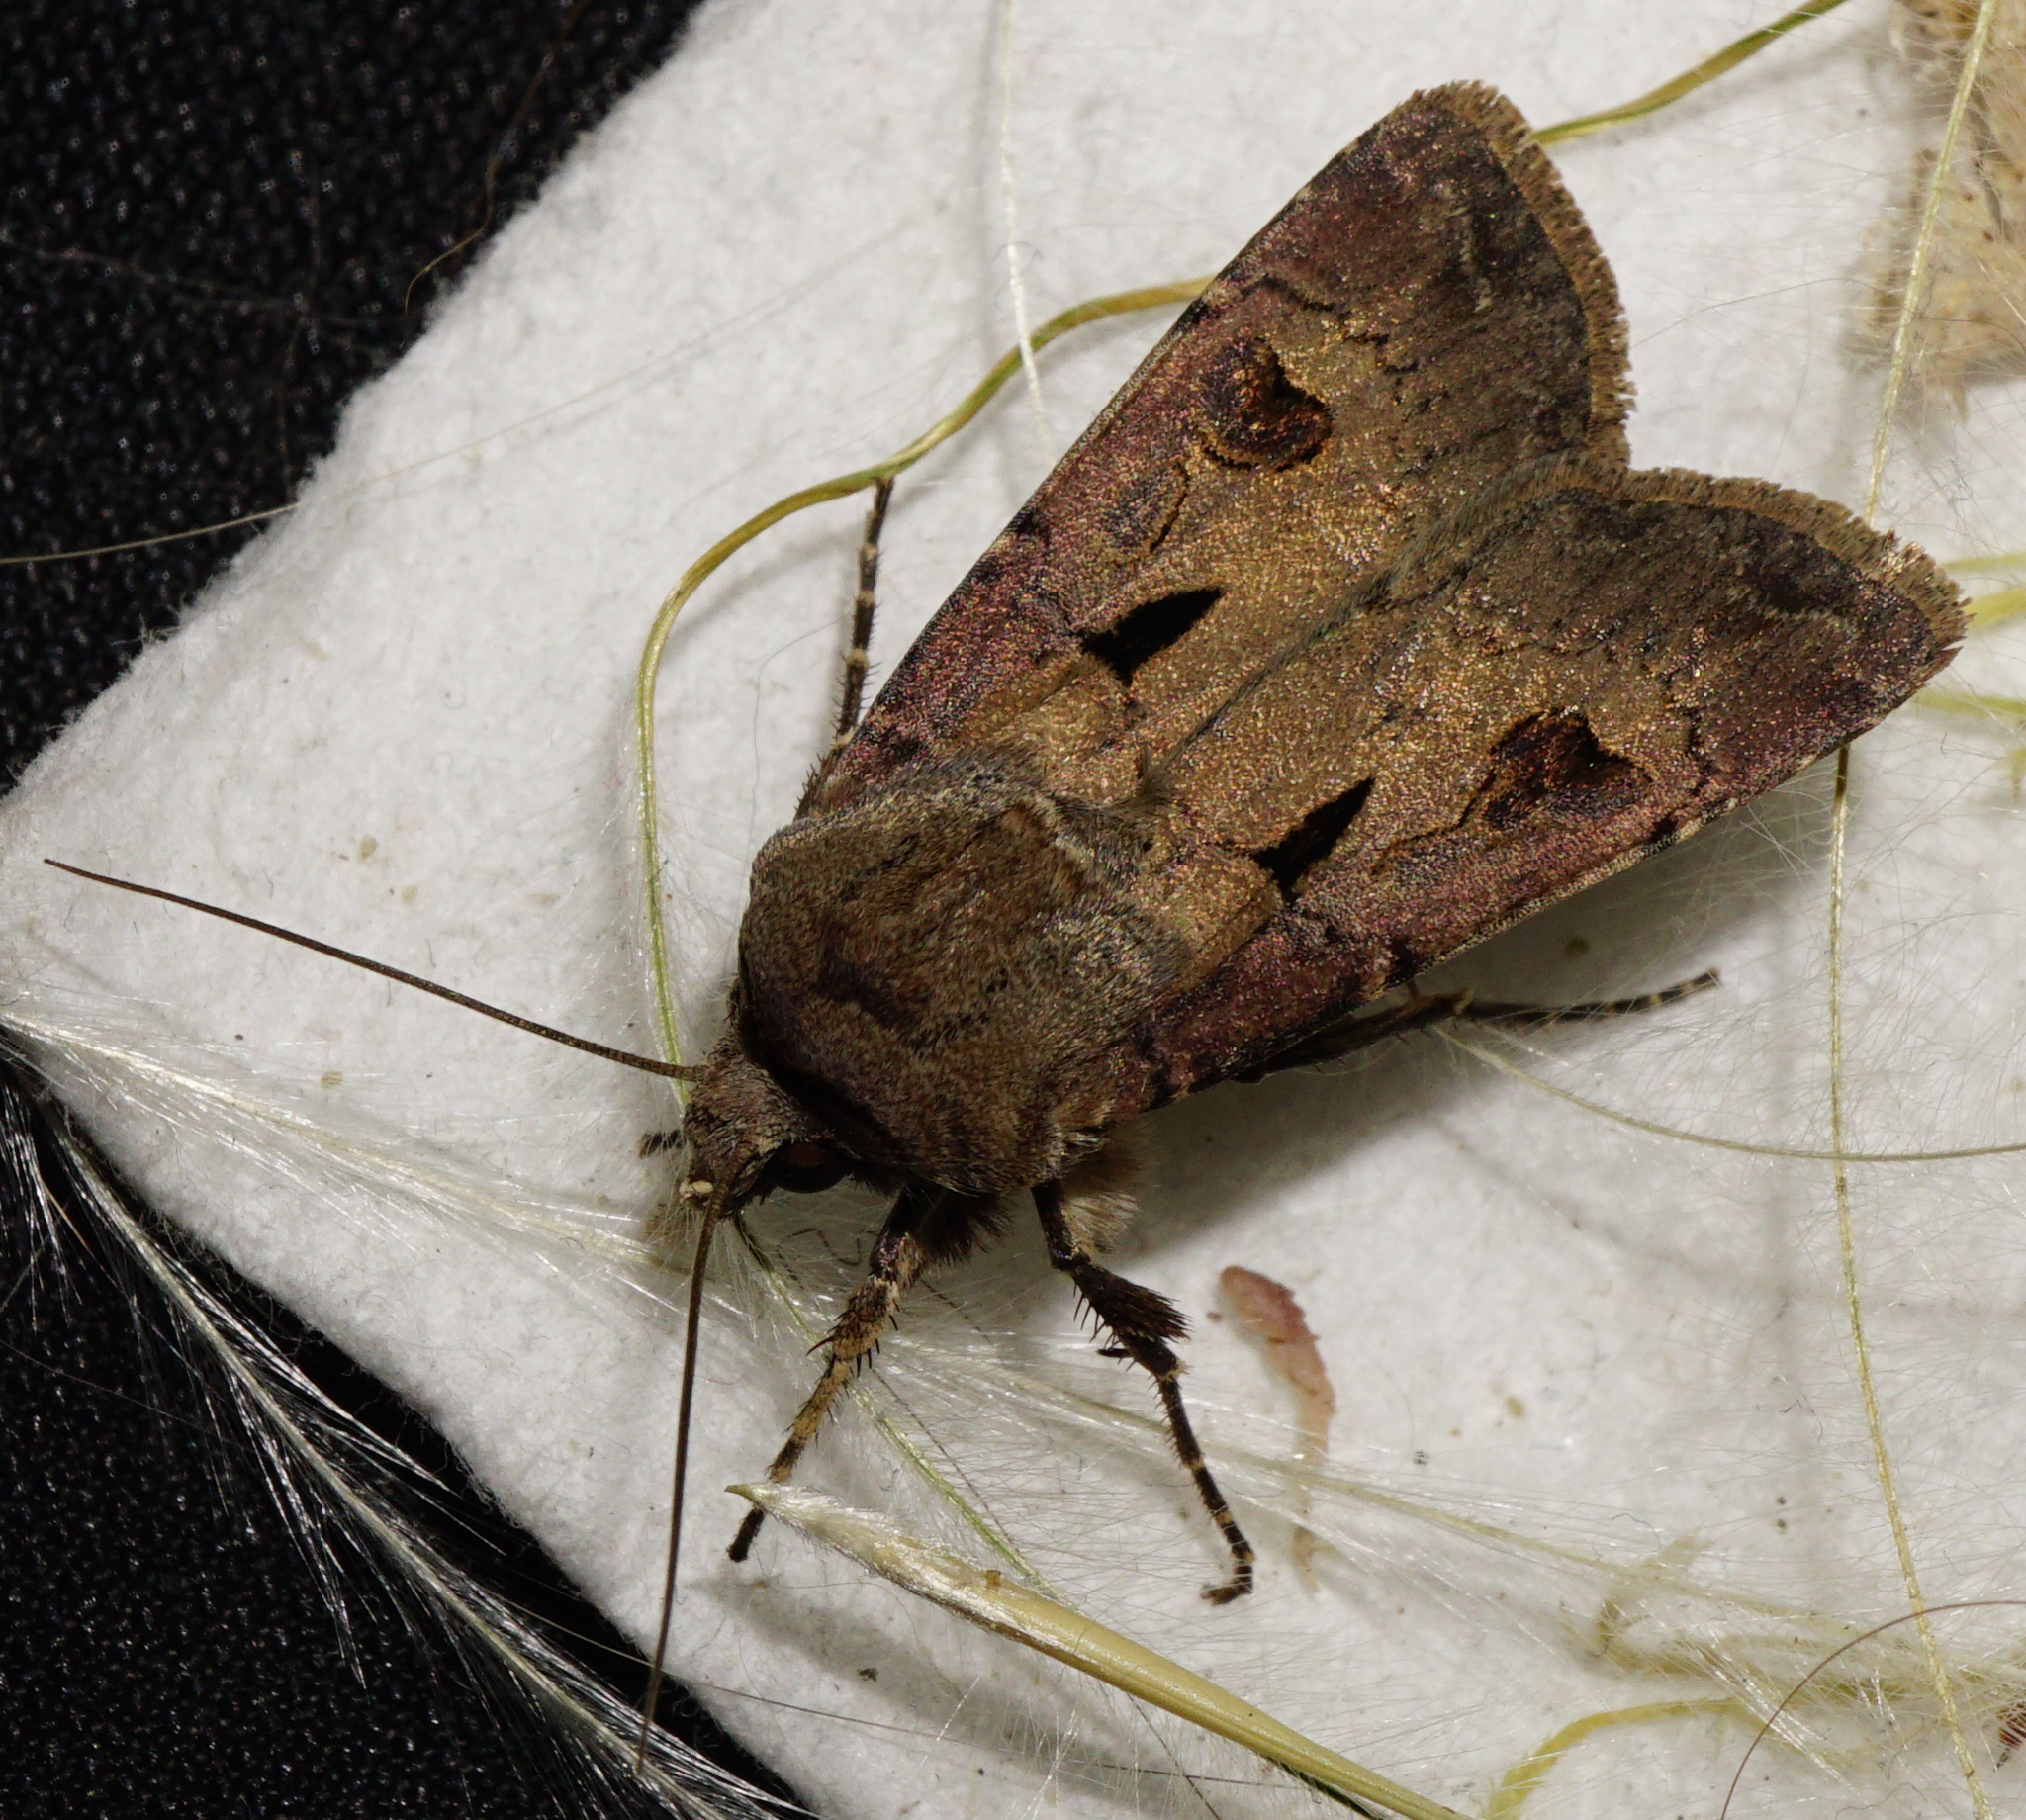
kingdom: Animalia
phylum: Arthropoda
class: Insecta
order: Lepidoptera
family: Noctuidae
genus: Agrotis
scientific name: Agrotis exclamationis
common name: Heart and dart
